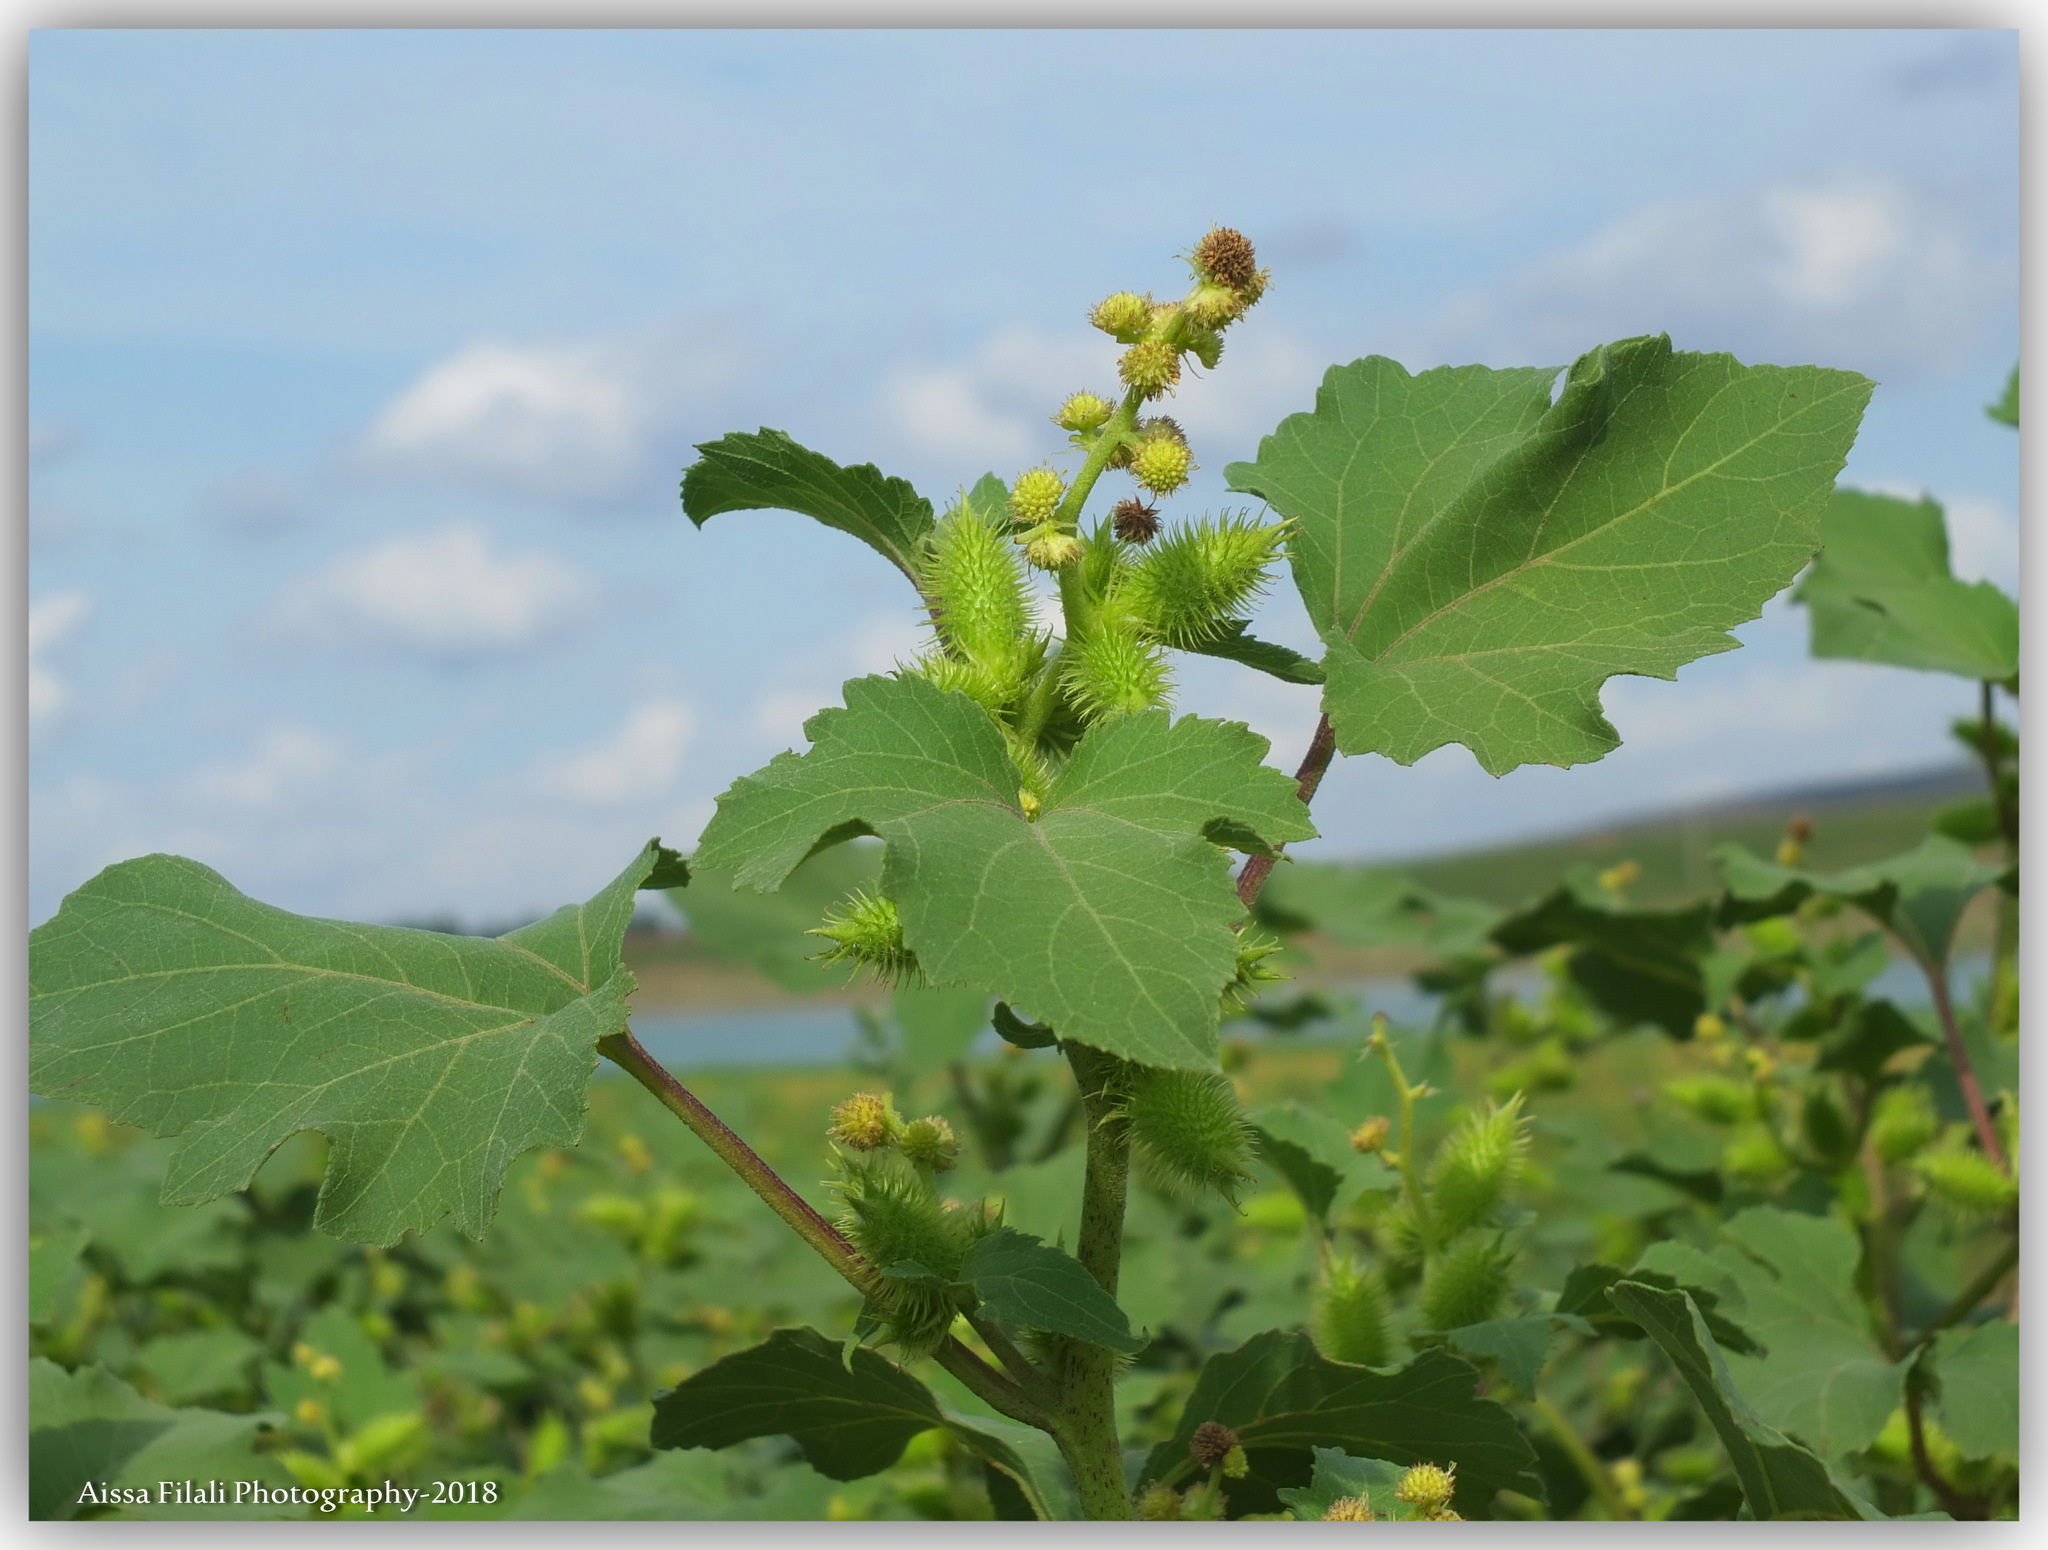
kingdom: Plantae
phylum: Tracheophyta
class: Magnoliopsida
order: Asterales
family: Asteraceae
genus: Xanthium
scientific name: Xanthium strumarium
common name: Rough cocklebur
